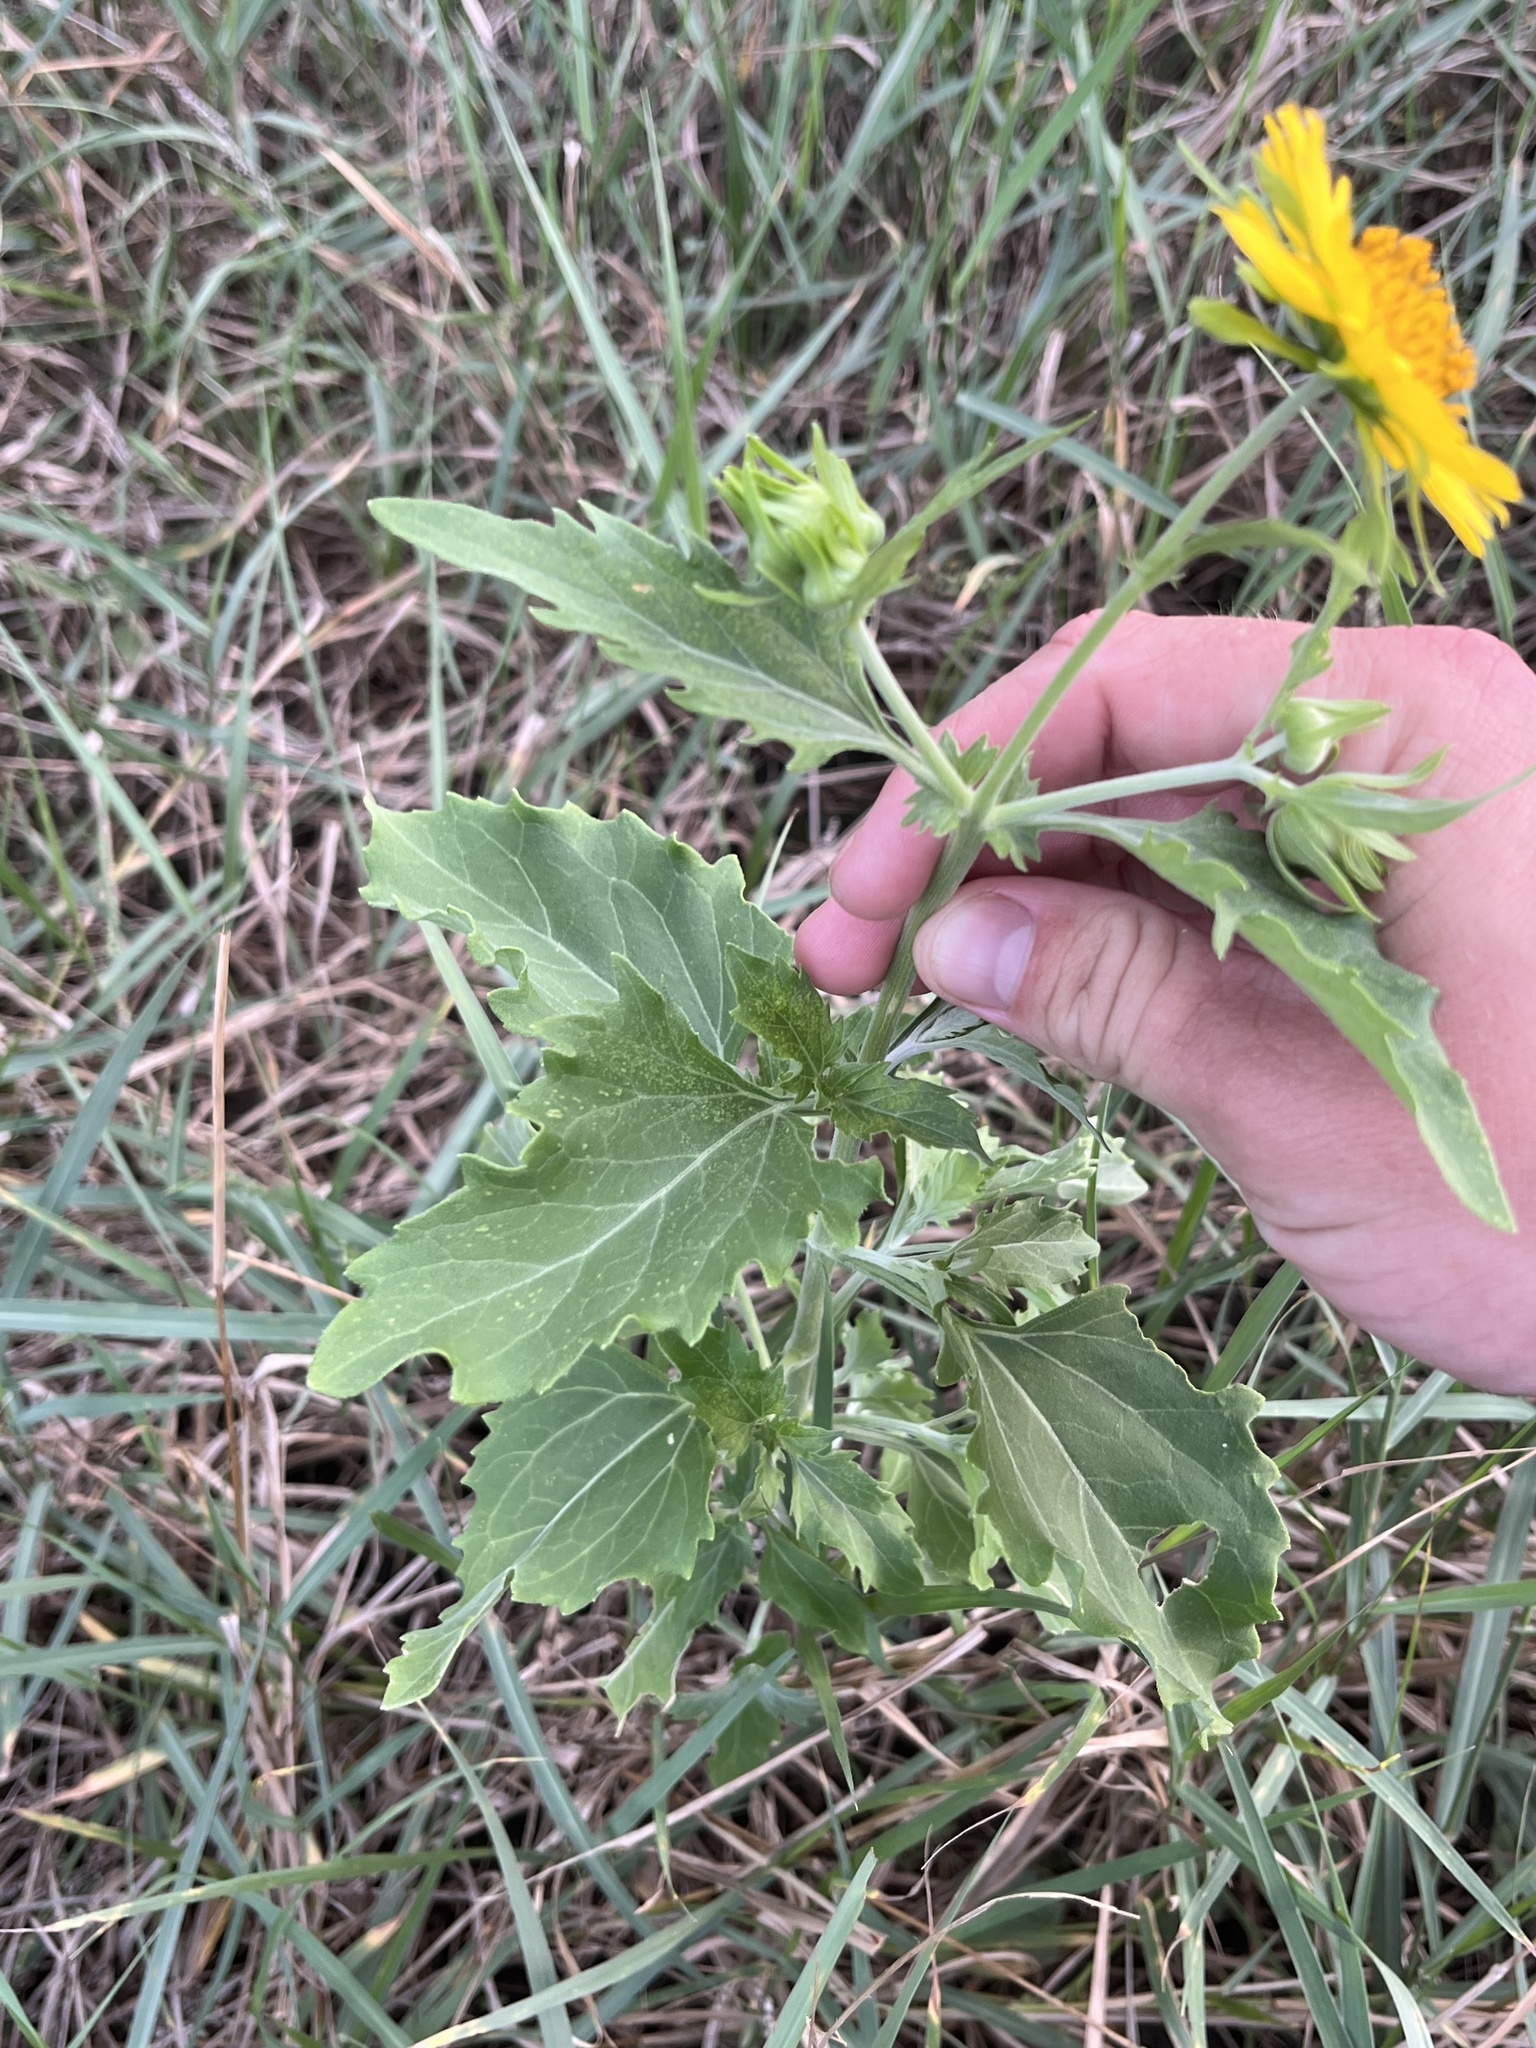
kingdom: Plantae
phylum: Tracheophyta
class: Magnoliopsida
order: Asterales
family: Asteraceae
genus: Verbesina
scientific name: Verbesina encelioides
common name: Golden crownbeard
